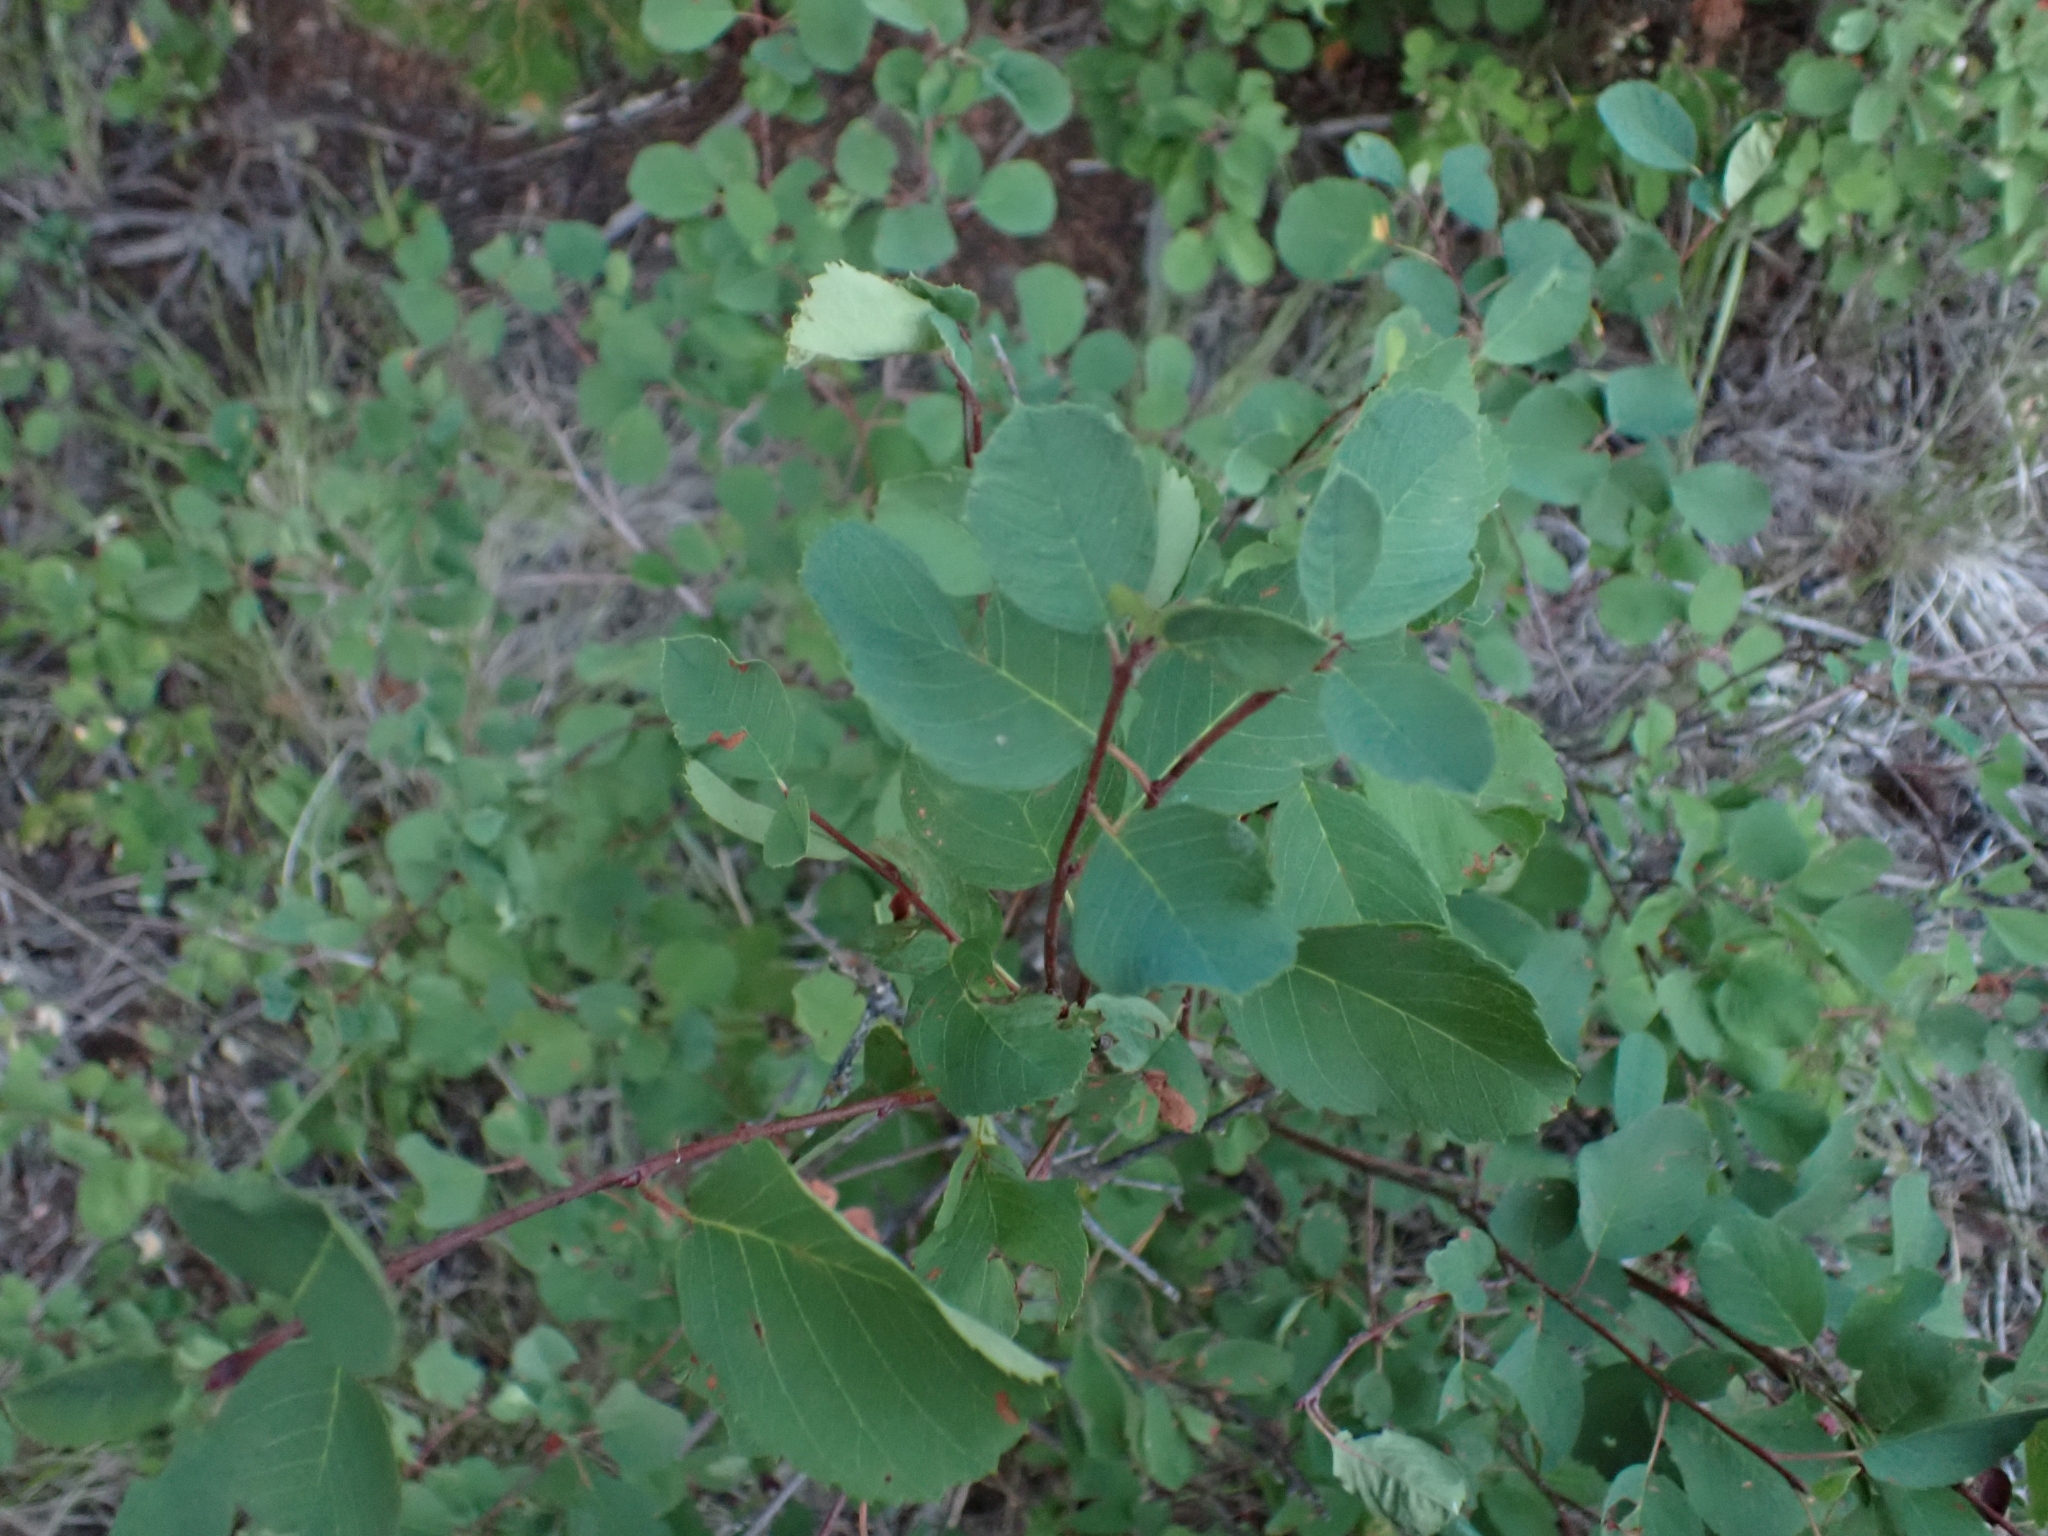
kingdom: Plantae
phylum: Tracheophyta
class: Magnoliopsida
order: Rosales
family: Rosaceae
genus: Amelanchier
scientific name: Amelanchier alnifolia
